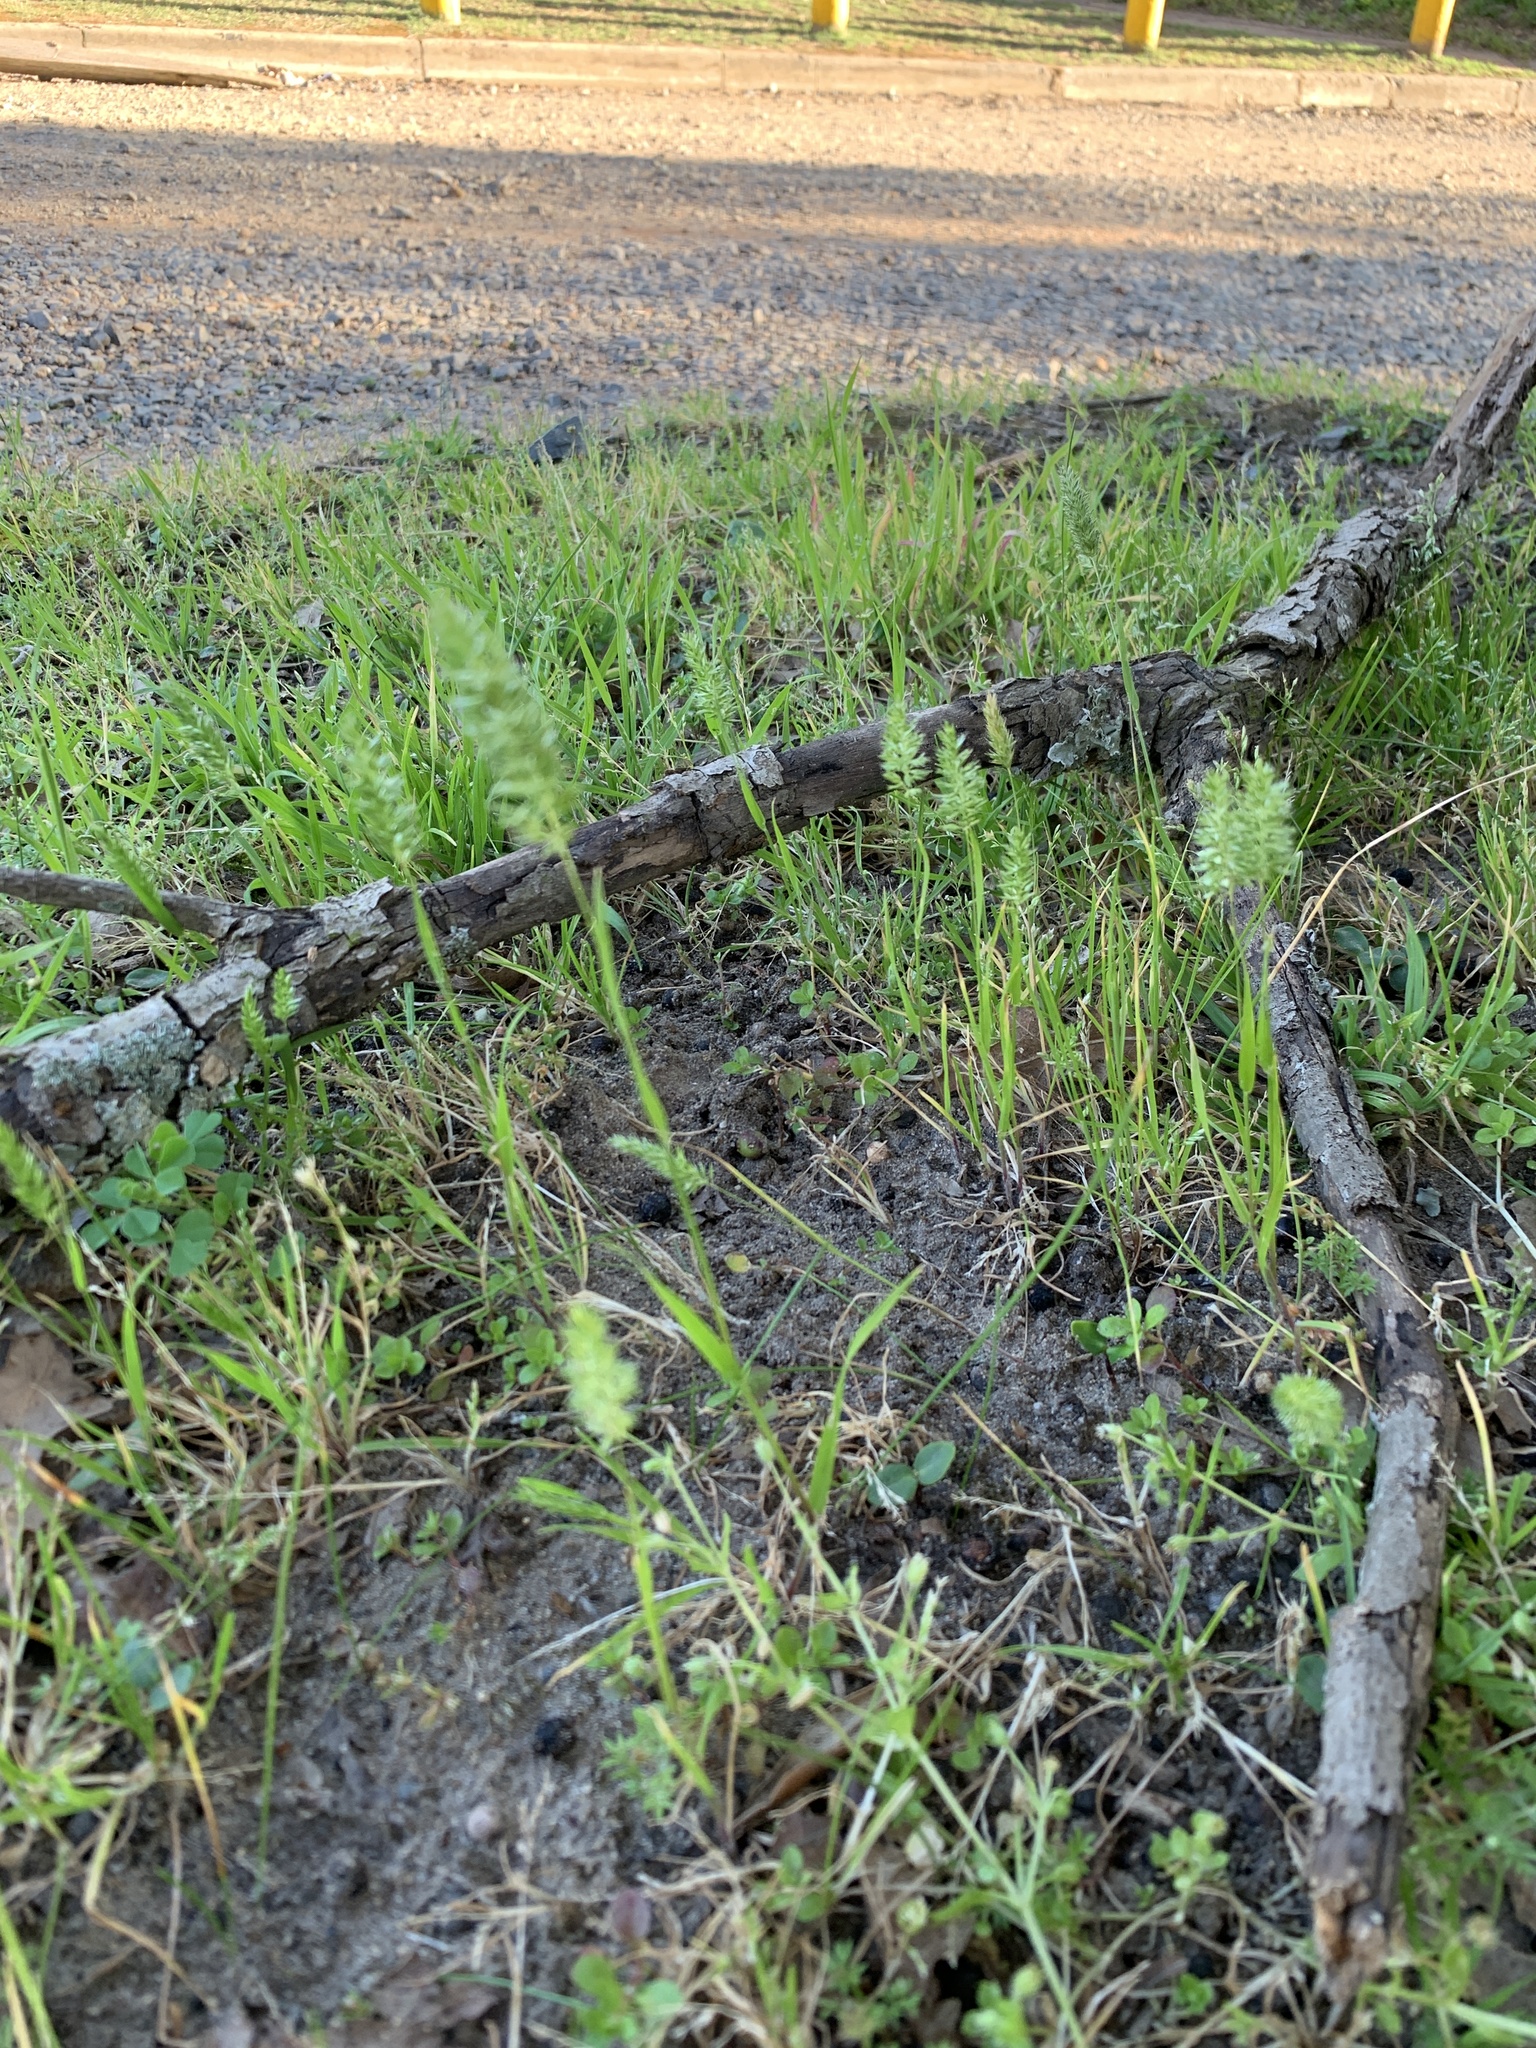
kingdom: Plantae
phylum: Tracheophyta
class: Liliopsida
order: Poales
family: Poaceae
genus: Rostraria
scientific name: Rostraria cristata
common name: Mediterranean hair-grass
